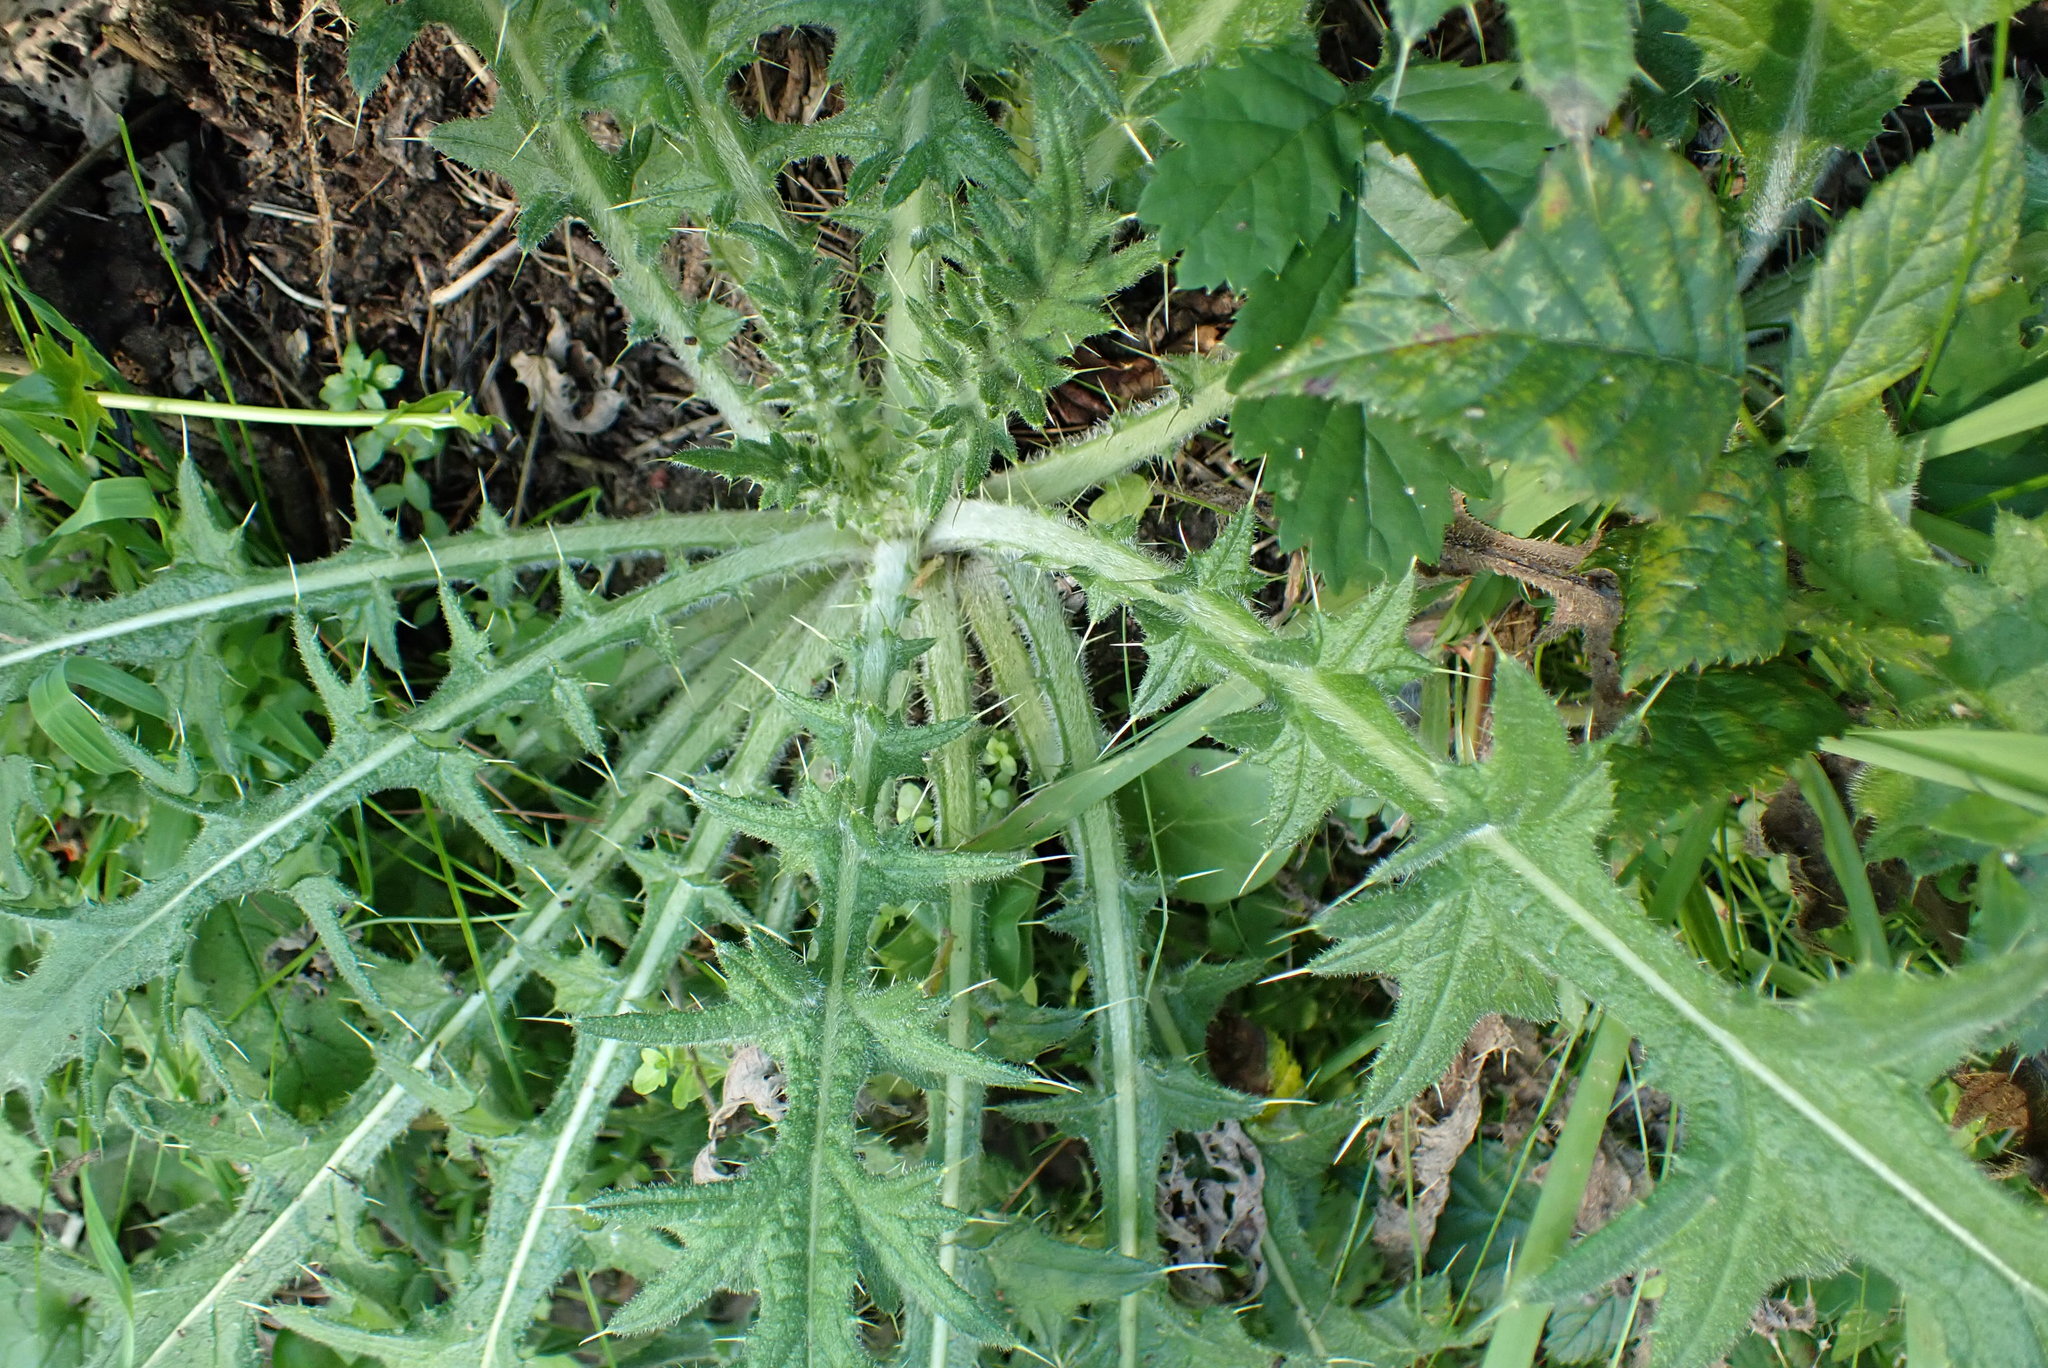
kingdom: Plantae
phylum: Tracheophyta
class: Magnoliopsida
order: Asterales
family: Asteraceae
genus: Cirsium
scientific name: Cirsium vulgare
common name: Bull thistle
